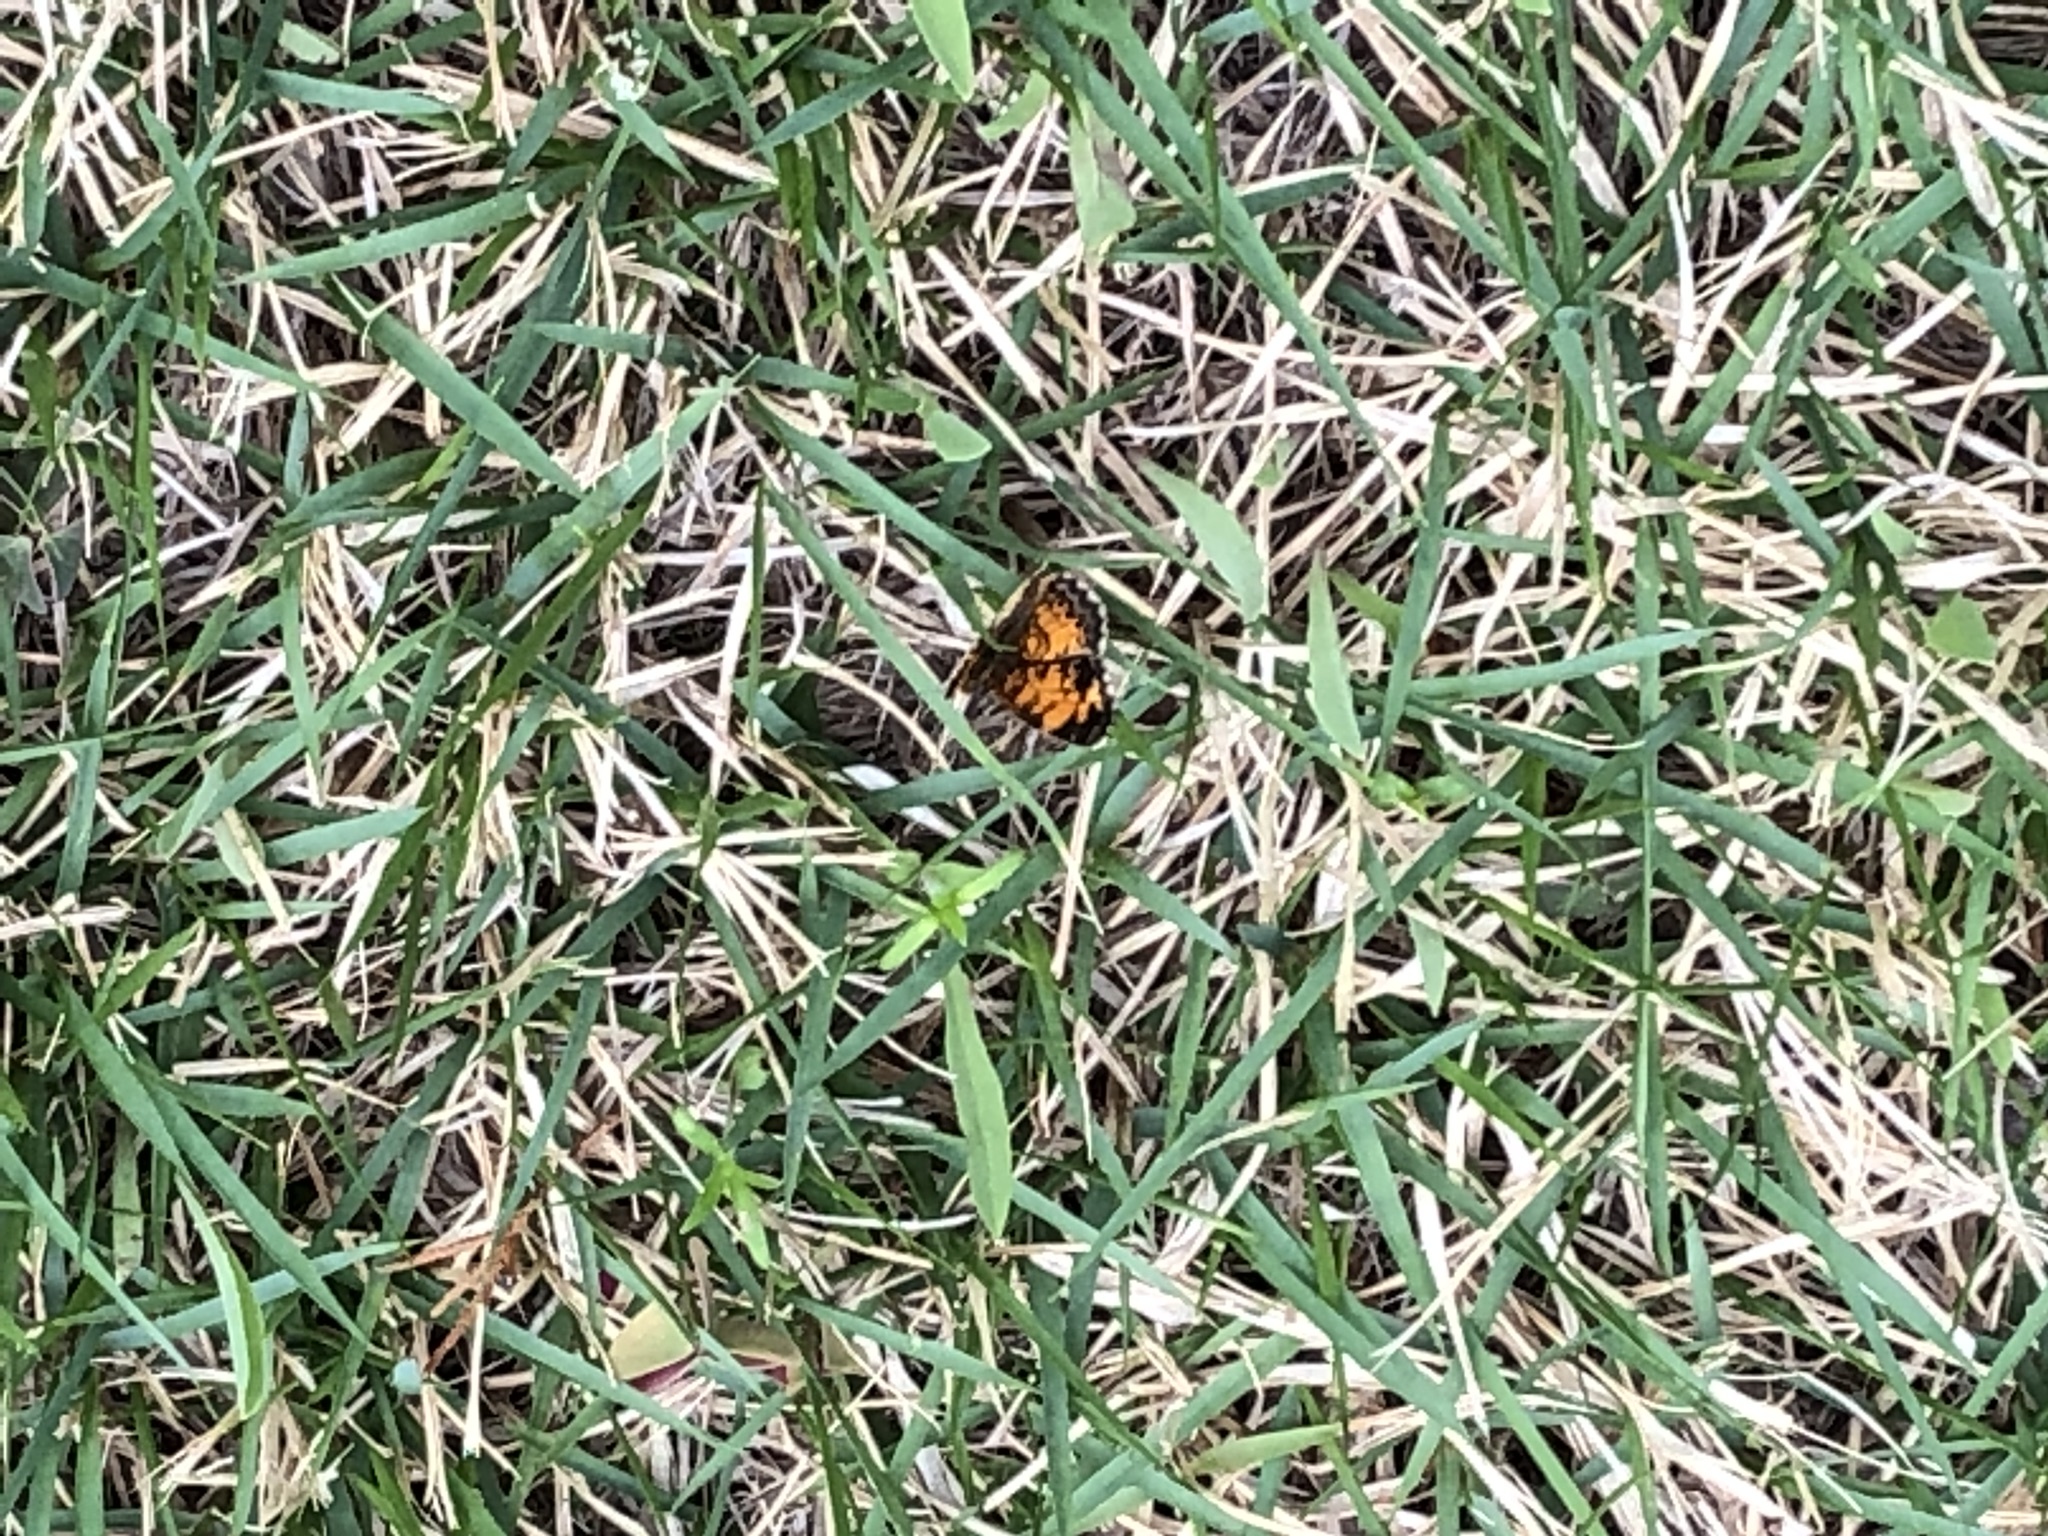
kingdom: Animalia
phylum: Arthropoda
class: Insecta
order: Lepidoptera
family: Nymphalidae
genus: Phyciodes
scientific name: Phyciodes tharos
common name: Pearl crescent
